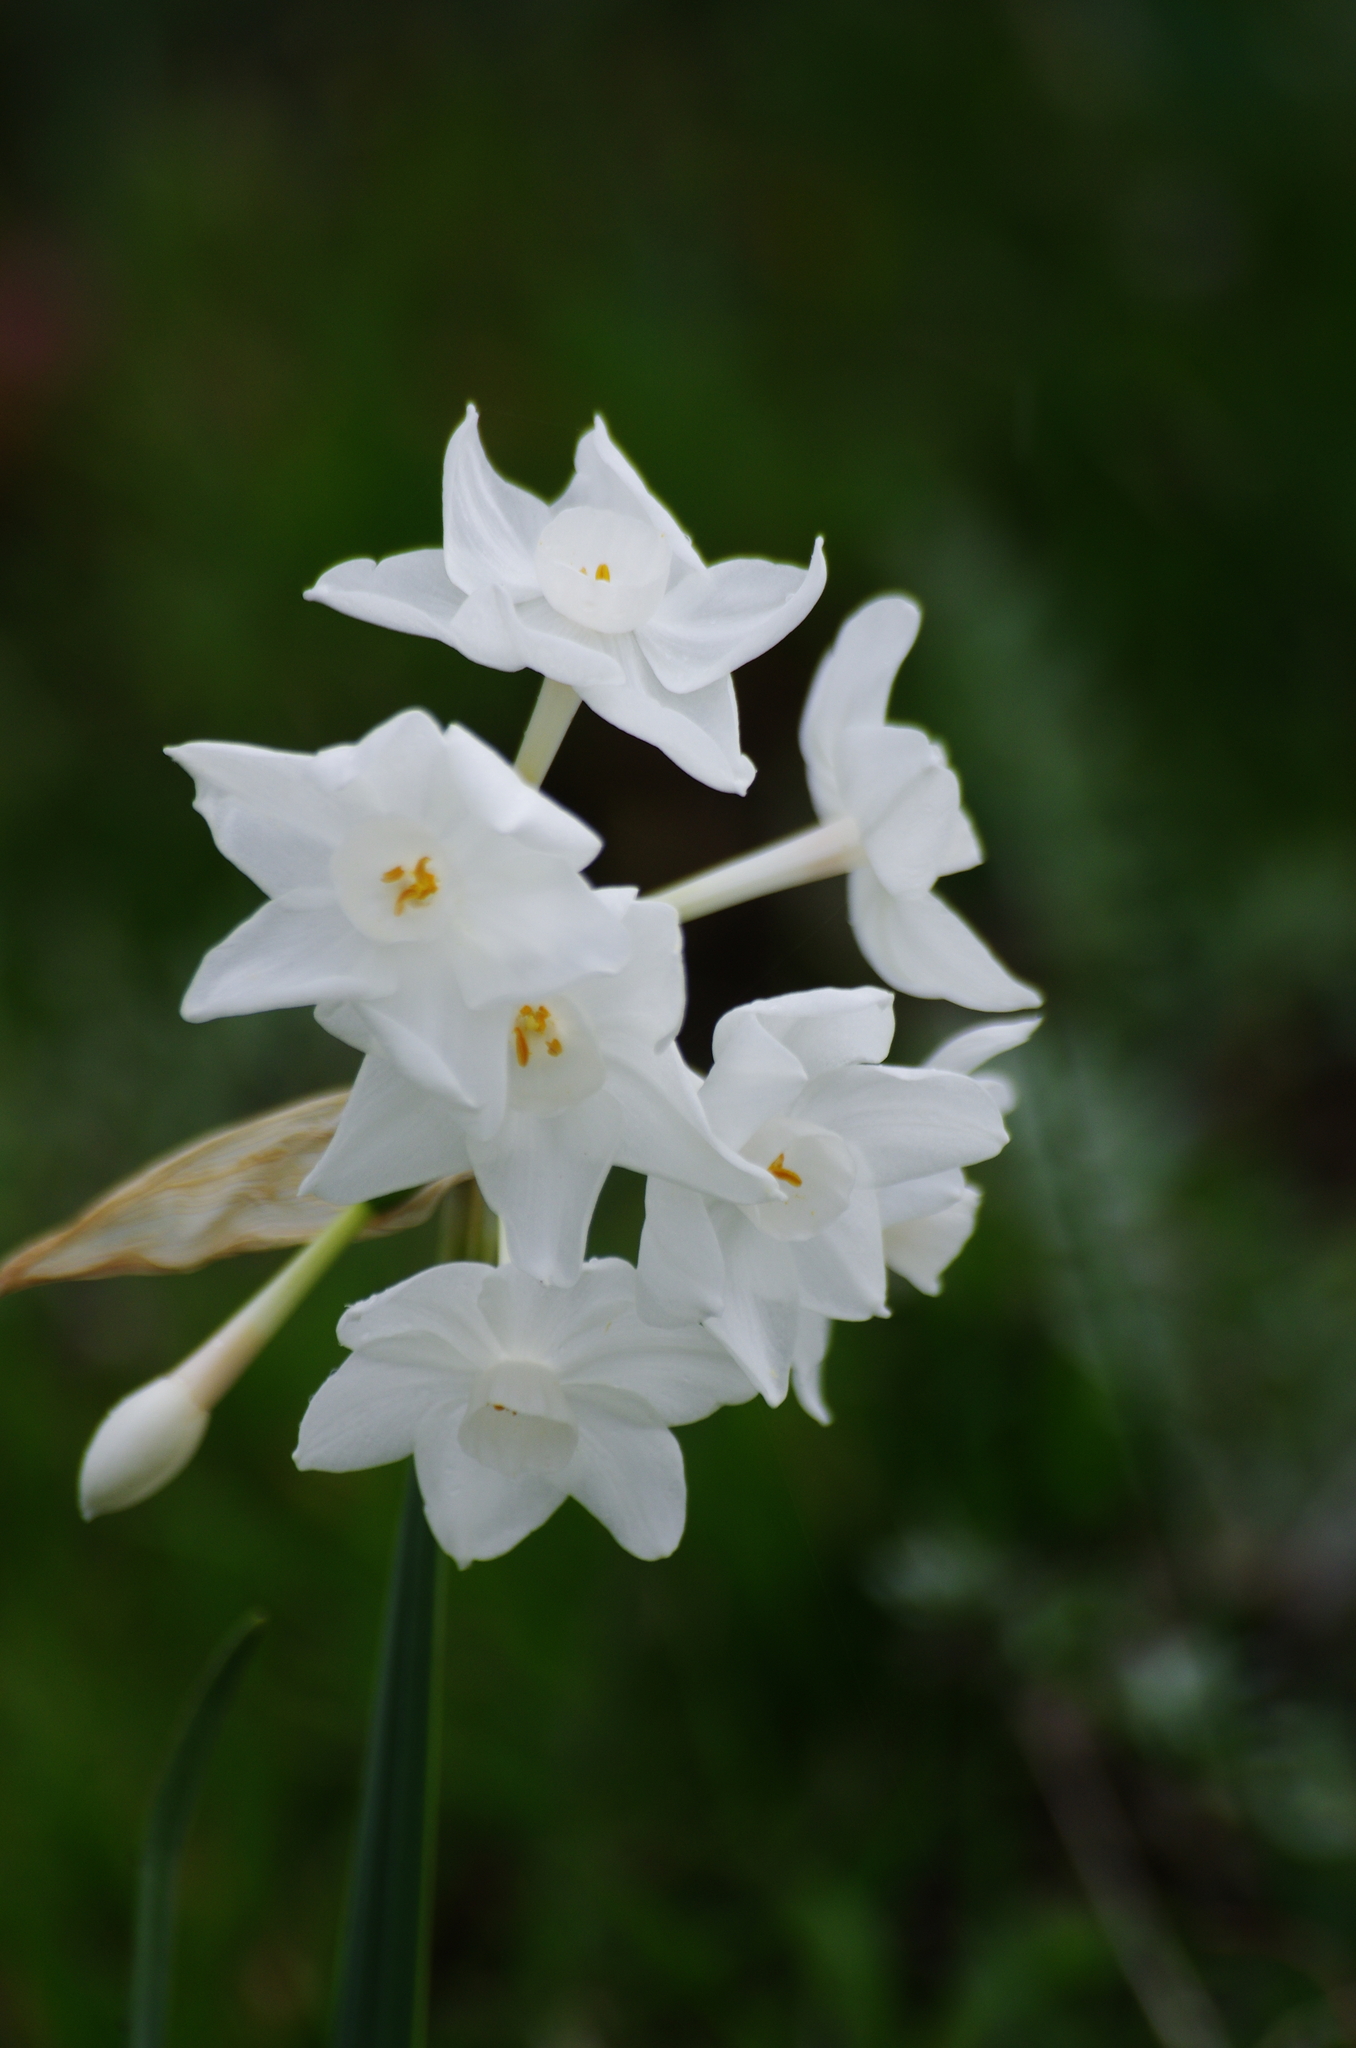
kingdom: Plantae
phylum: Tracheophyta
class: Liliopsida
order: Asparagales
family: Amaryllidaceae
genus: Narcissus
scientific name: Narcissus papyraceus
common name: Paper-white daffodil
